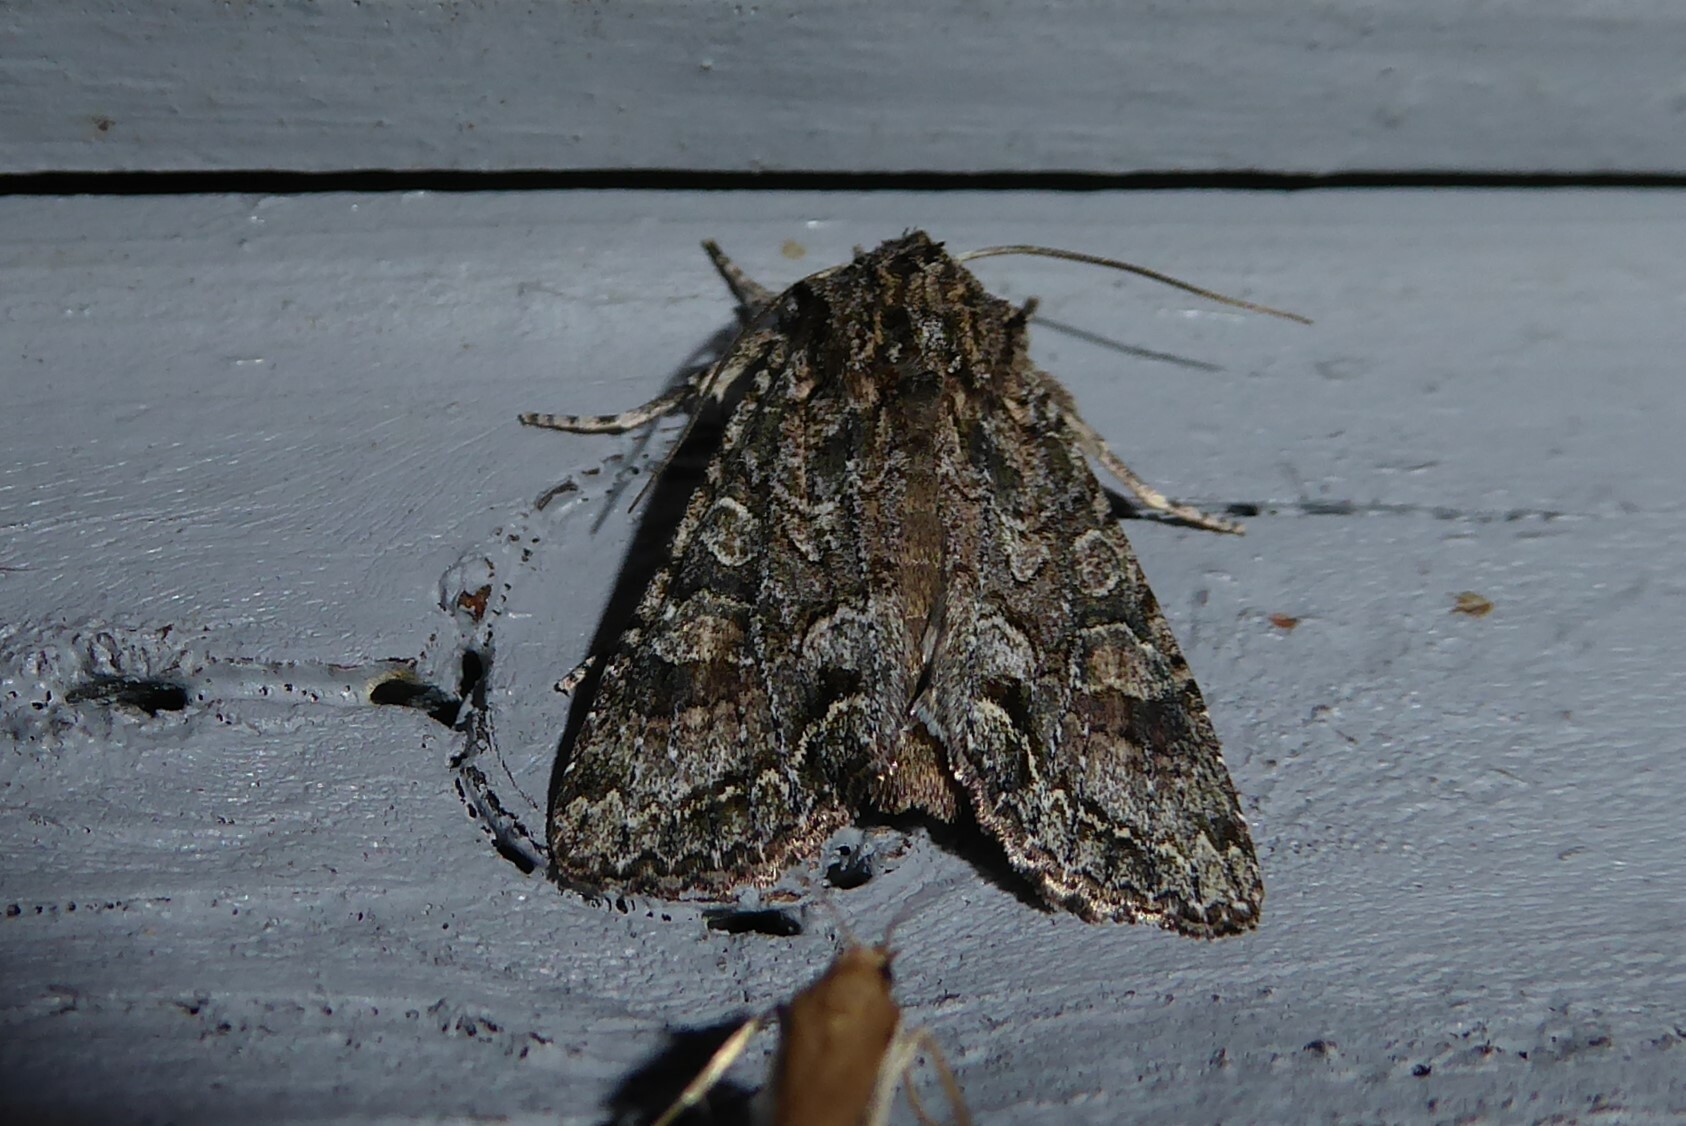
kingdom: Animalia
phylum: Arthropoda
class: Insecta
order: Lepidoptera
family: Noctuidae
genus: Ichneutica
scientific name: Ichneutica mutans
